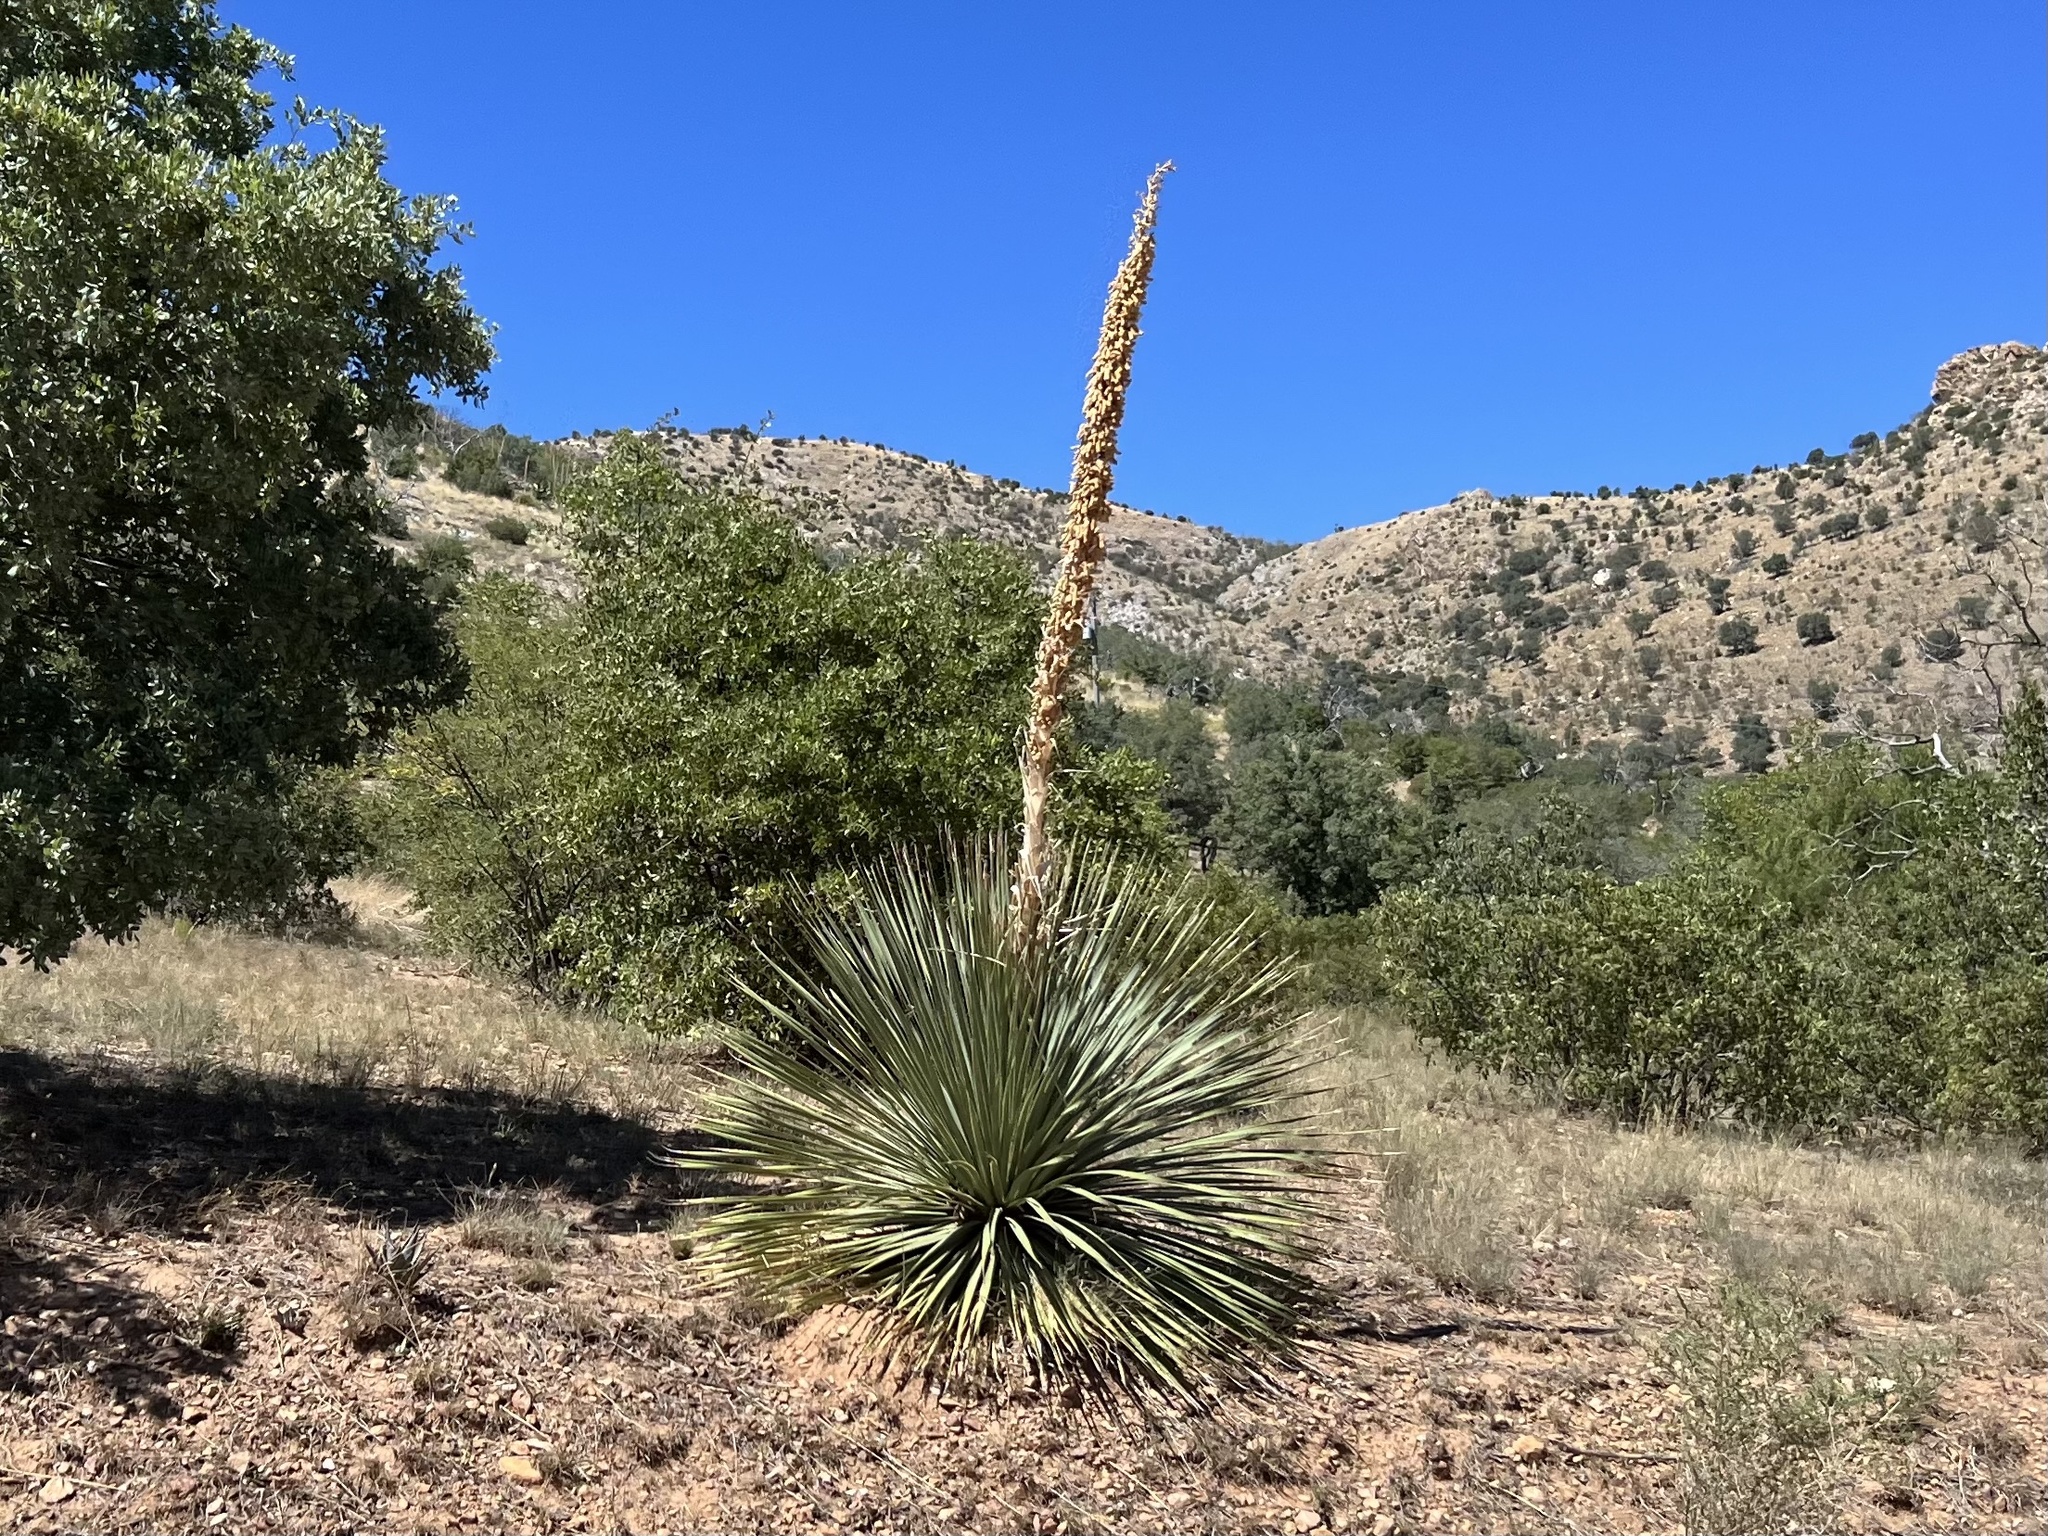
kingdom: Plantae
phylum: Tracheophyta
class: Liliopsida
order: Asparagales
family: Asparagaceae
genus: Dasylirion
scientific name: Dasylirion wheeleri
